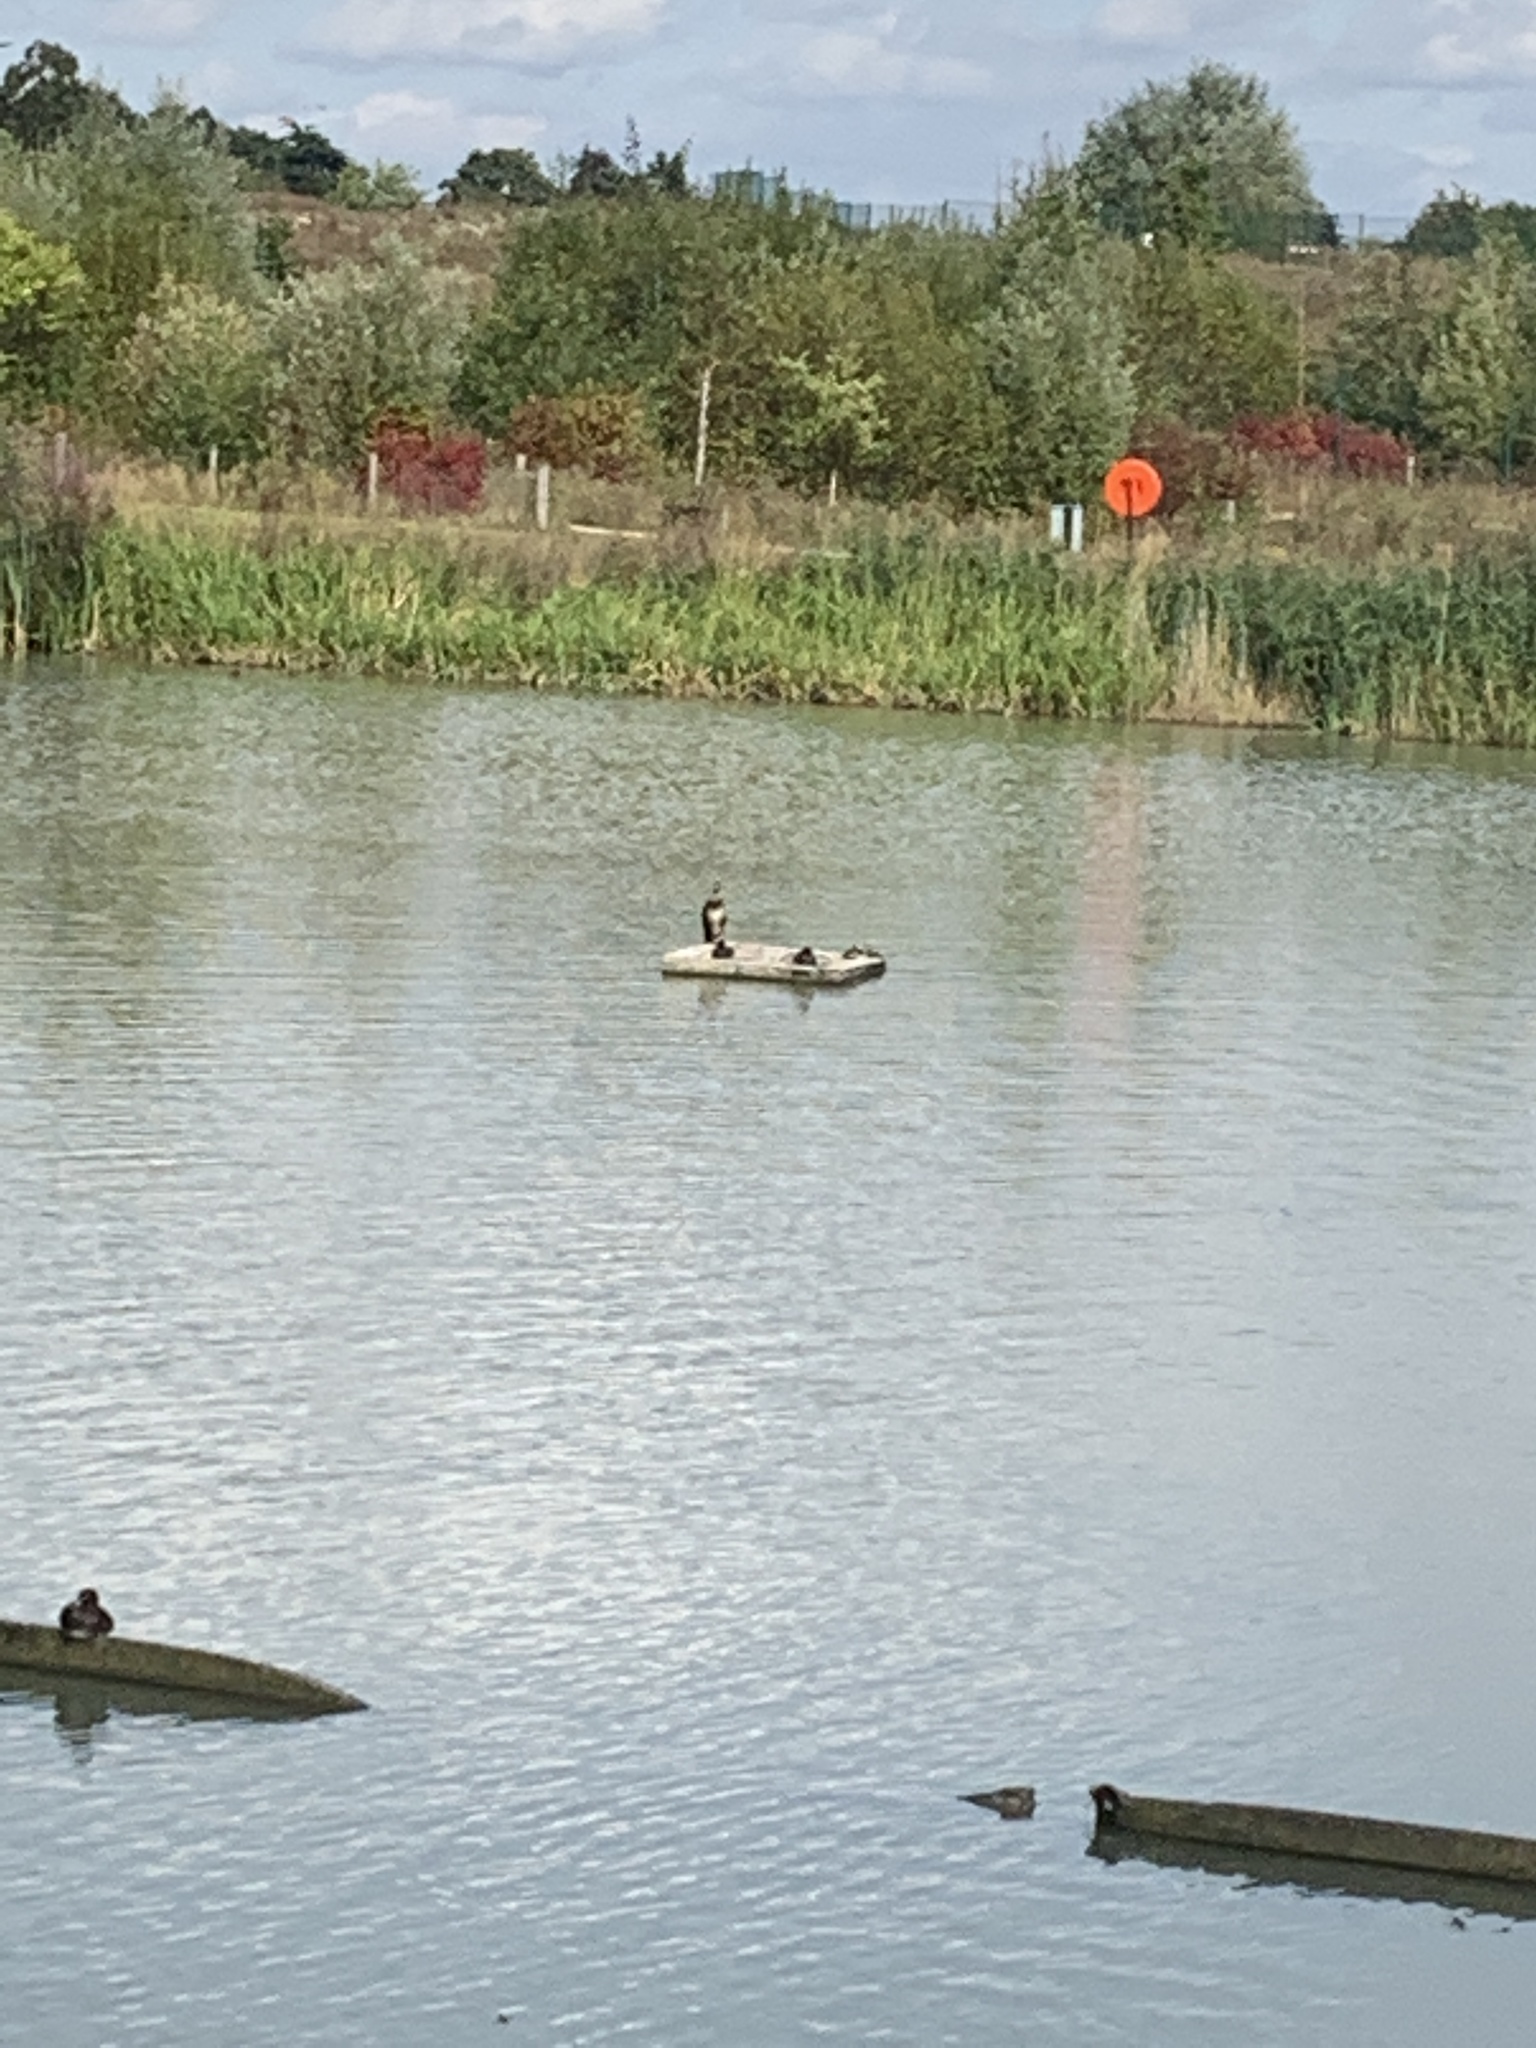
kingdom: Animalia
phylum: Chordata
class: Aves
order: Suliformes
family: Phalacrocoracidae
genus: Phalacrocorax
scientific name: Phalacrocorax carbo
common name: Great cormorant
